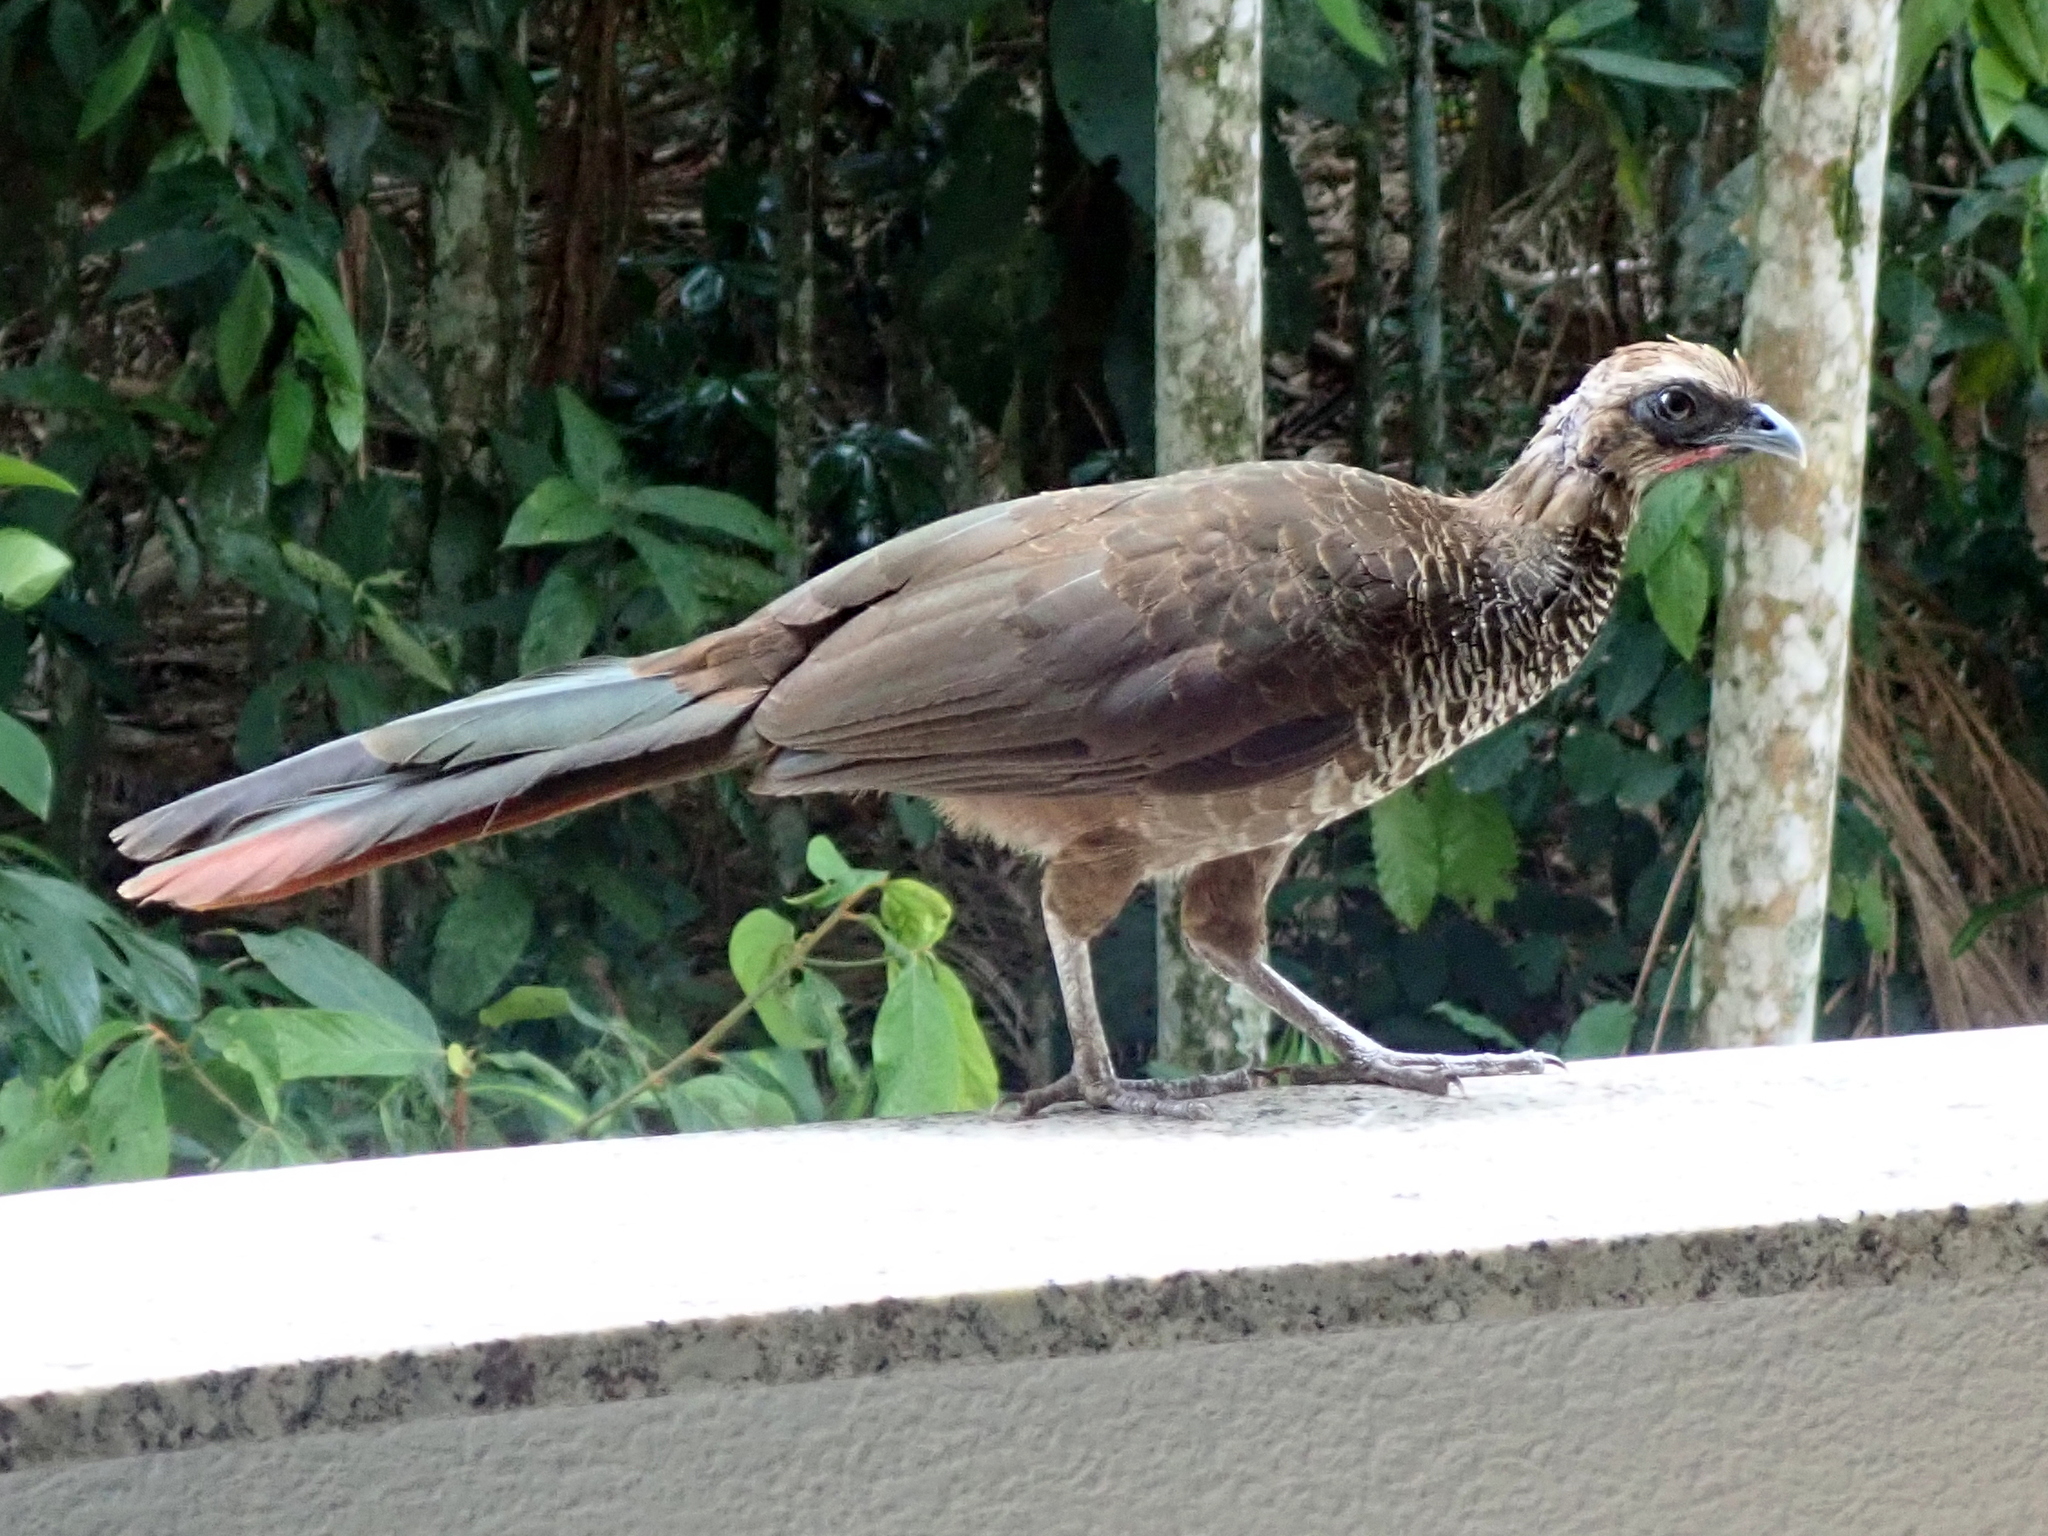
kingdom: Animalia
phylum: Chordata
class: Aves
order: Galliformes
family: Cracidae
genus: Ortalis
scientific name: Ortalis squamata
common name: Scaled chachalaca
